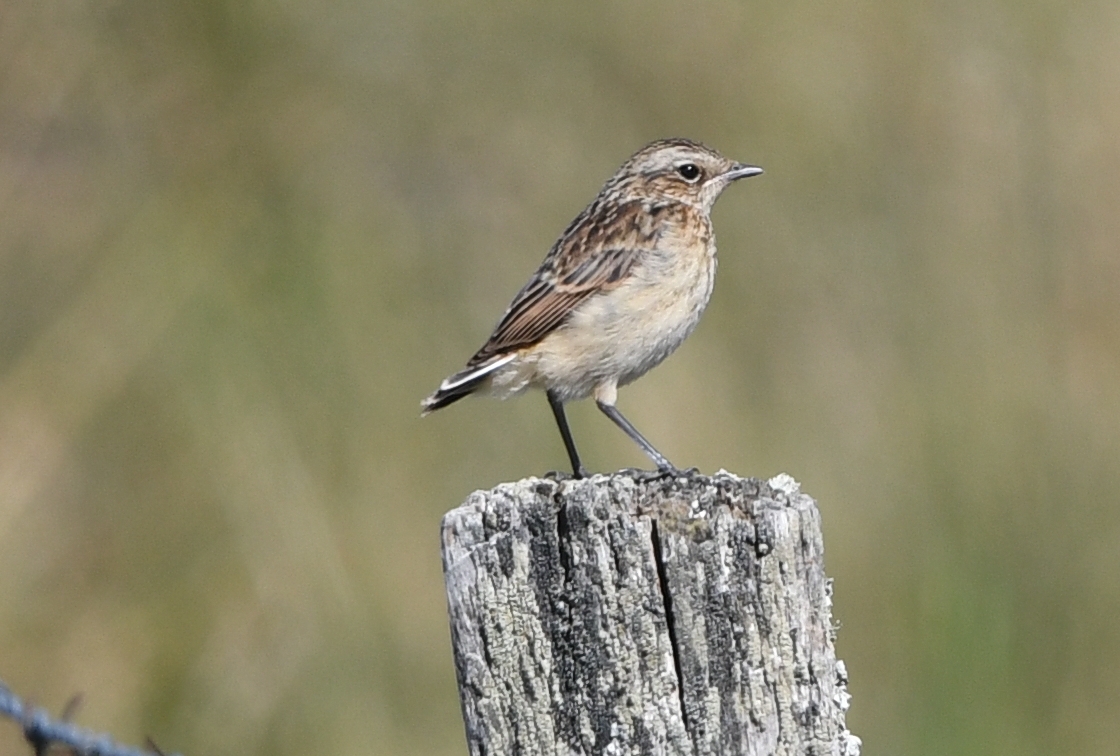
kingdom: Animalia
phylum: Chordata
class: Aves
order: Passeriformes
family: Muscicapidae
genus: Saxicola
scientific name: Saxicola rubetra
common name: Whinchat
